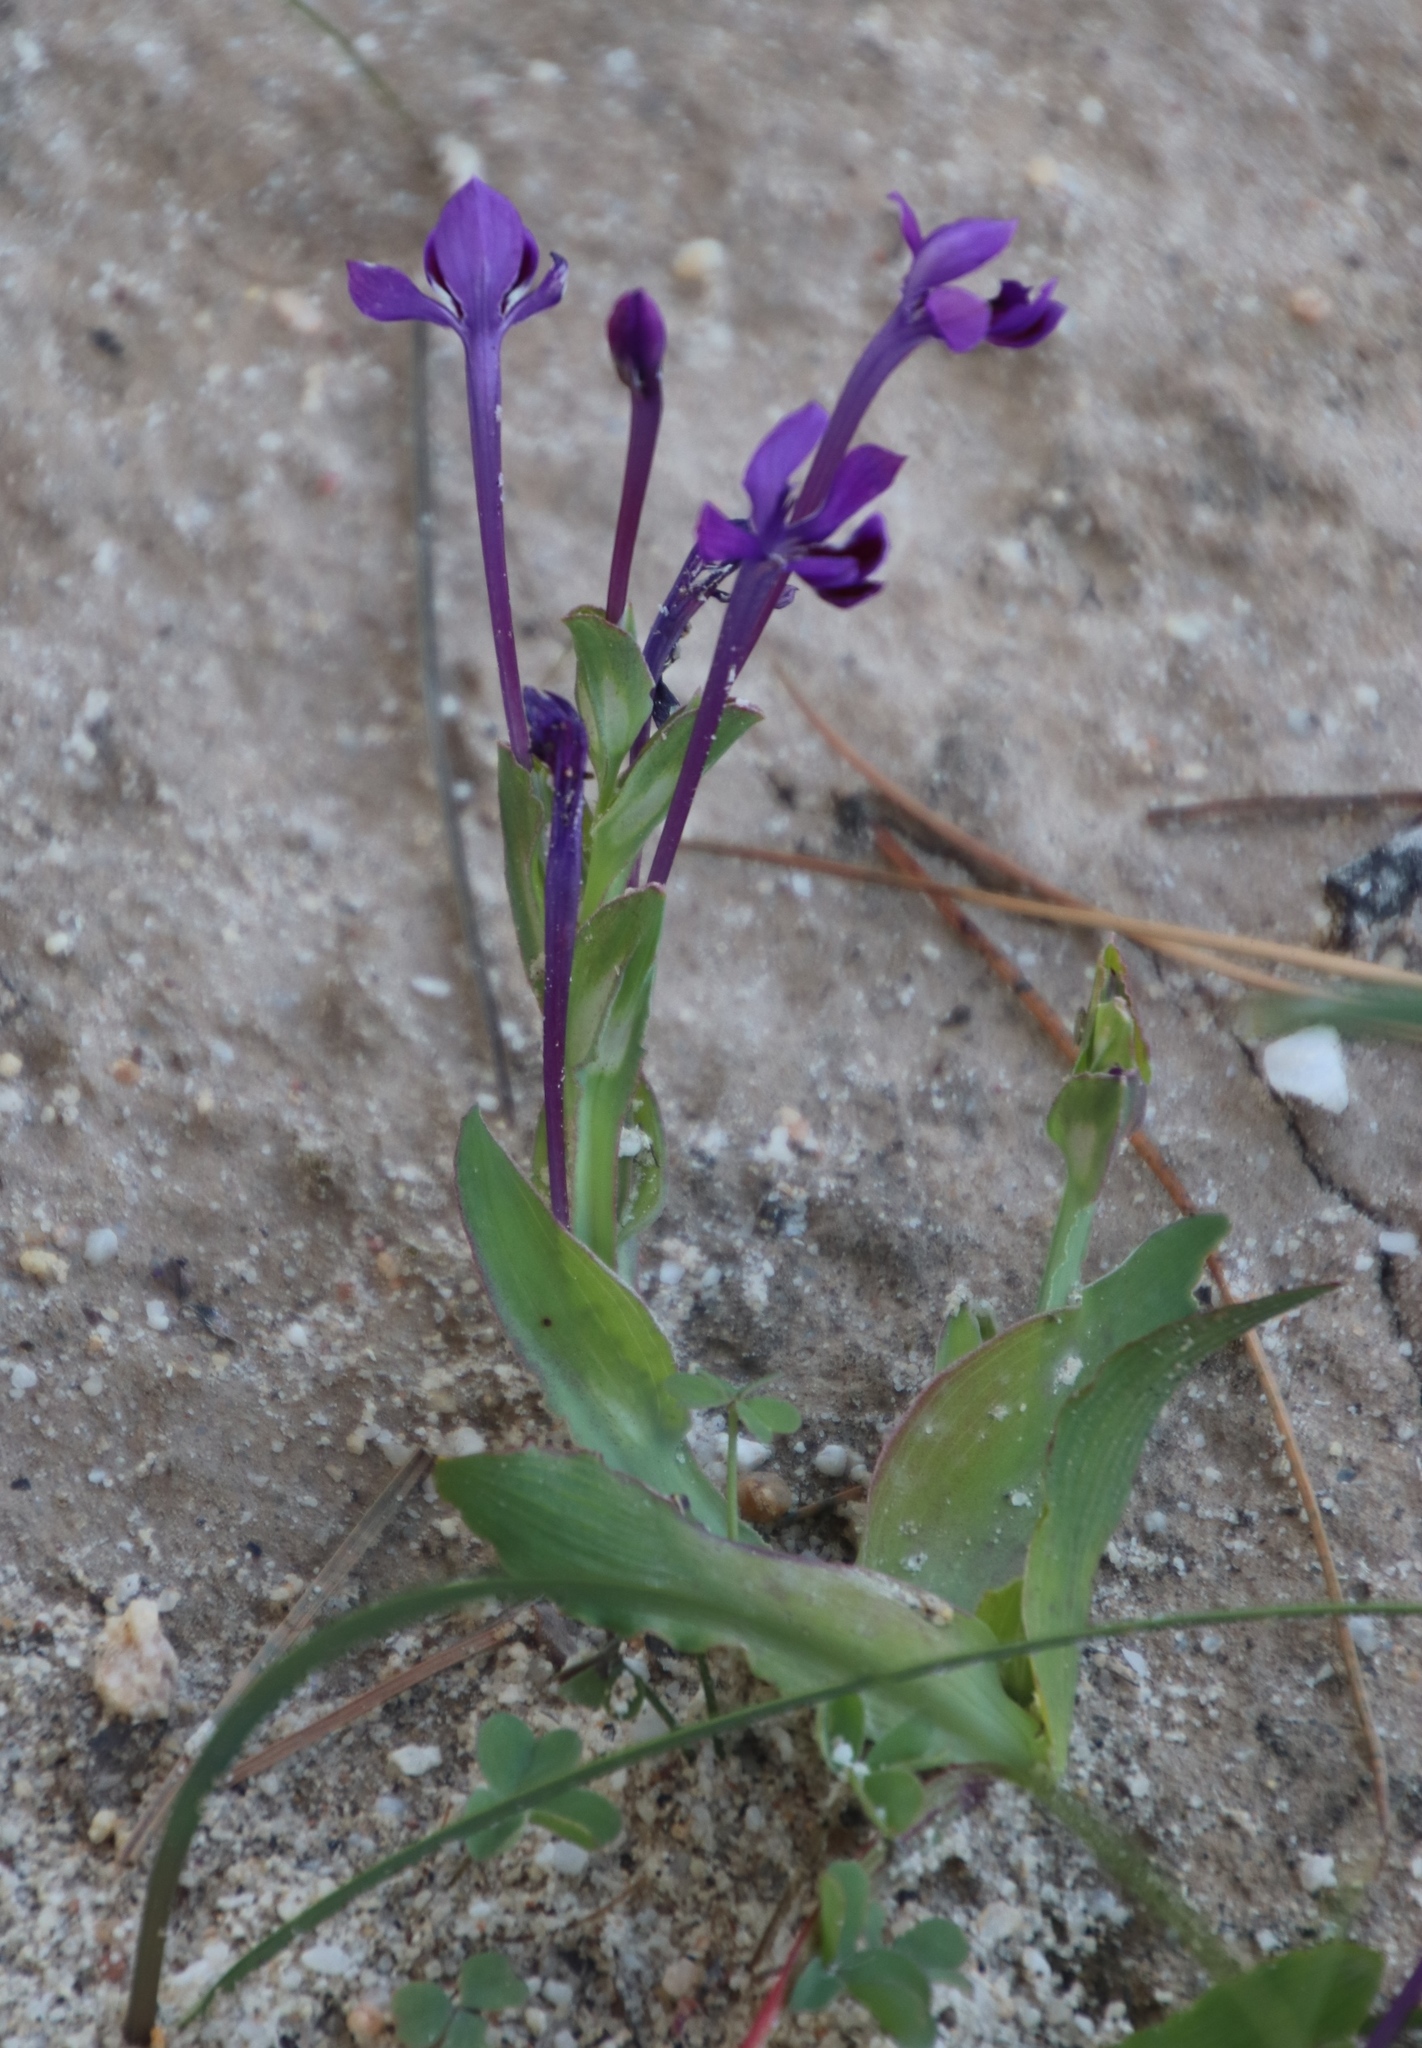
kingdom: Plantae
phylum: Tracheophyta
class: Liliopsida
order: Asparagales
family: Iridaceae
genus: Lapeirousia
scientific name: Lapeirousia jacquinii
